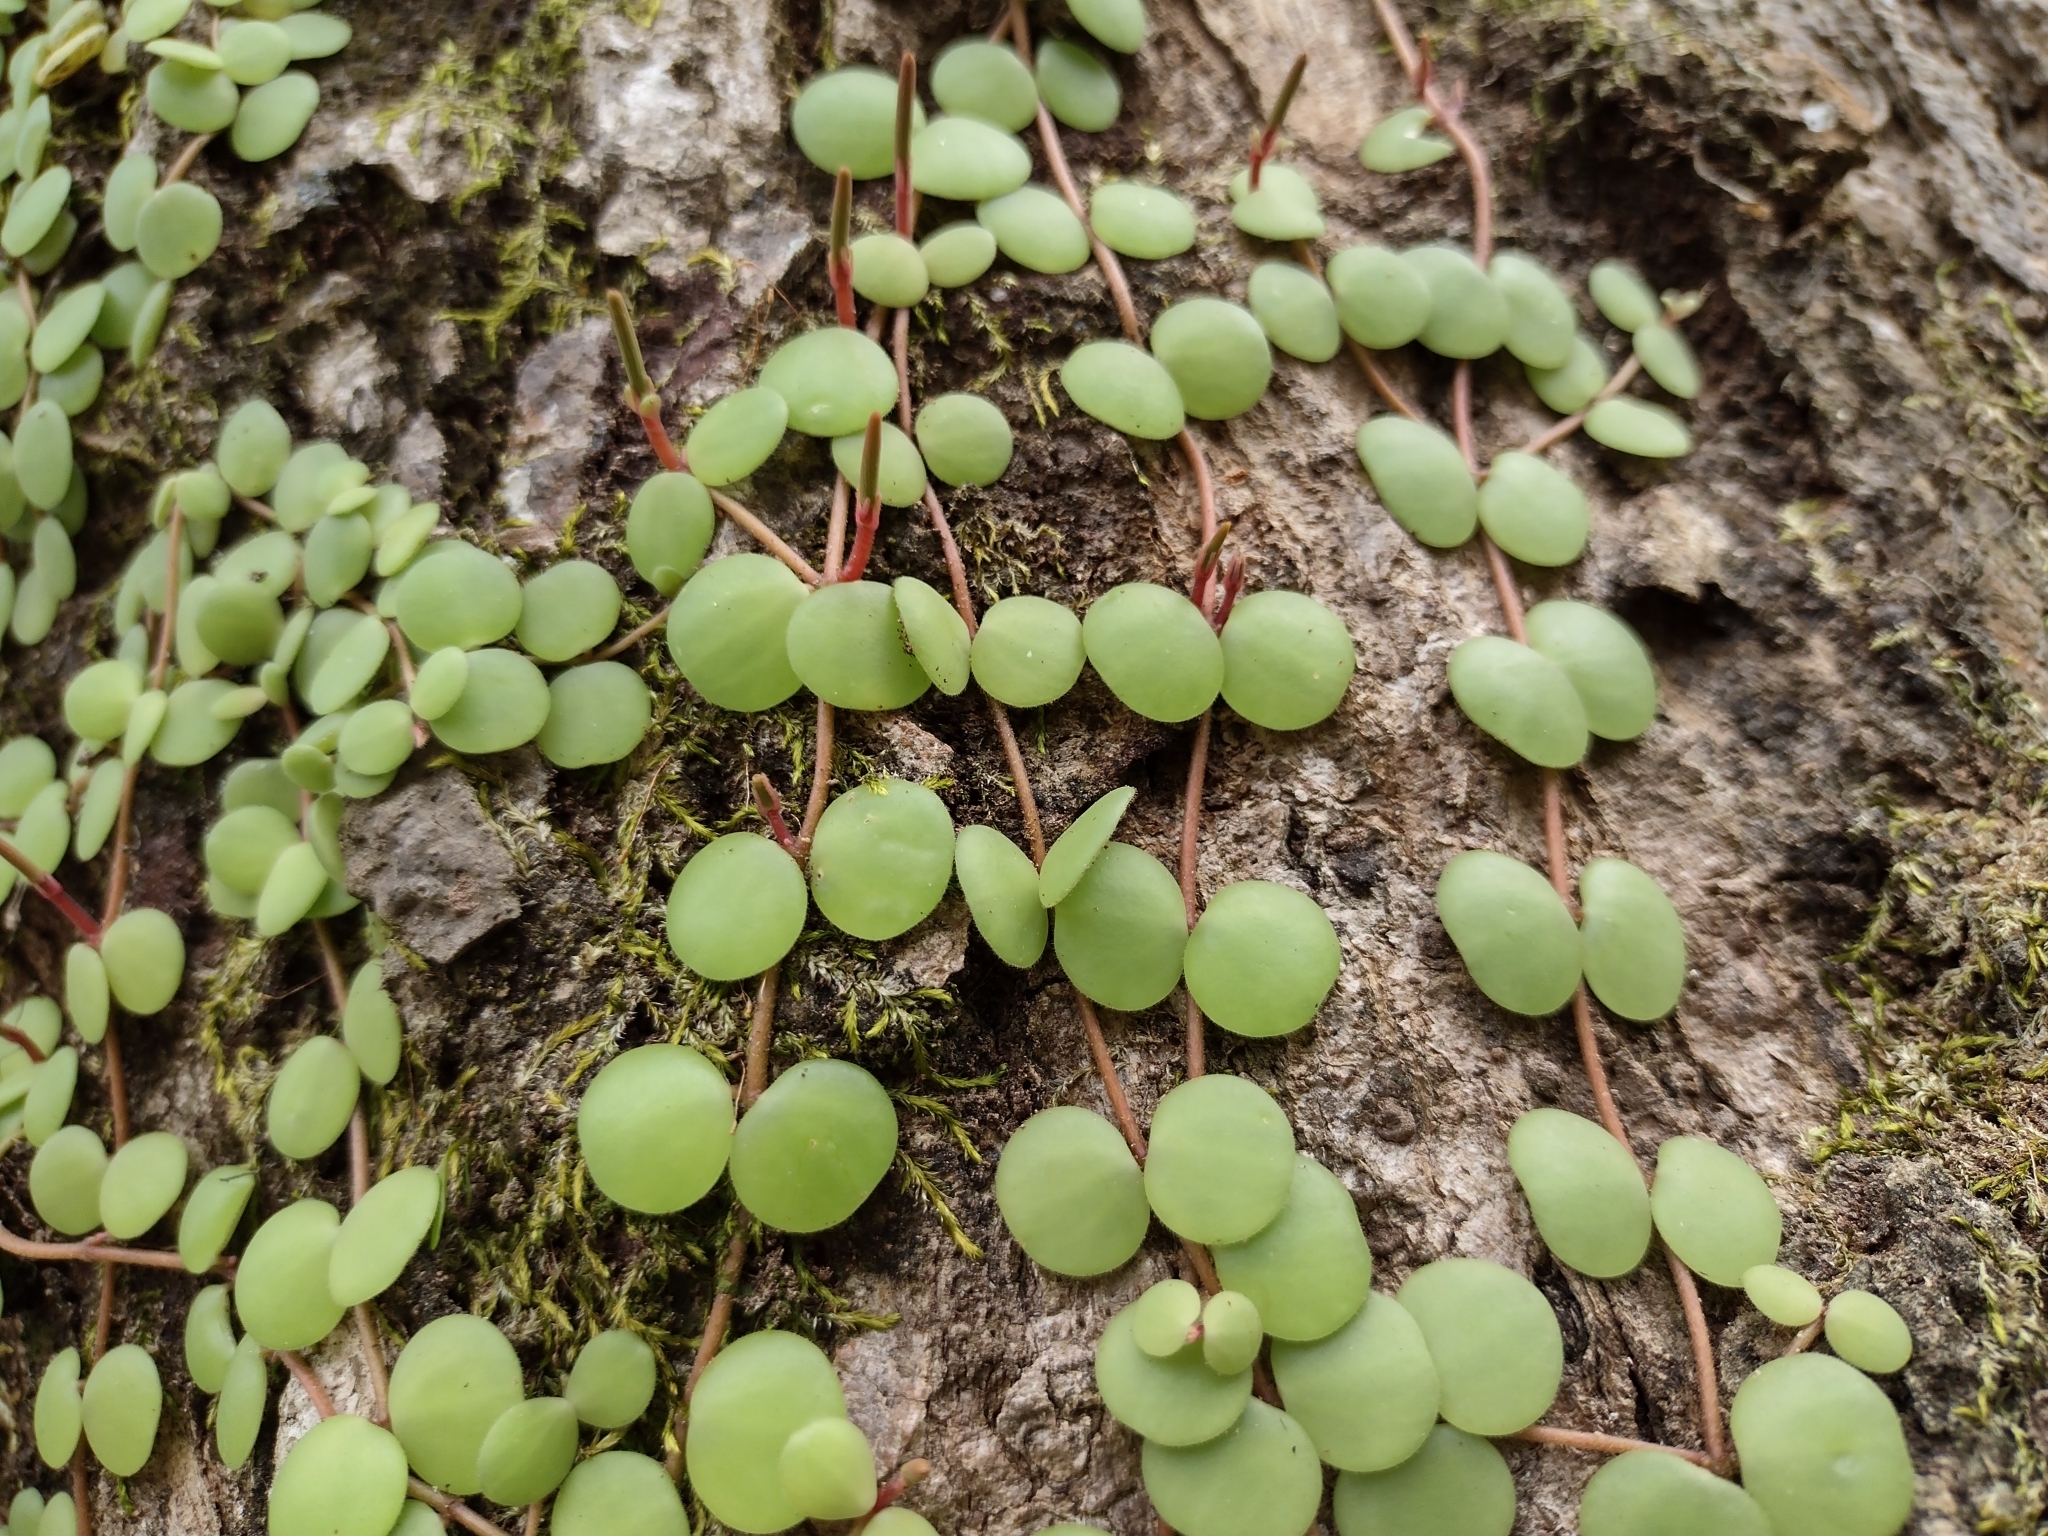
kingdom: Plantae
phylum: Tracheophyta
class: Magnoliopsida
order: Piperales
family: Piperaceae
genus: Peperomia
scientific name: Peperomia cyclophylla
